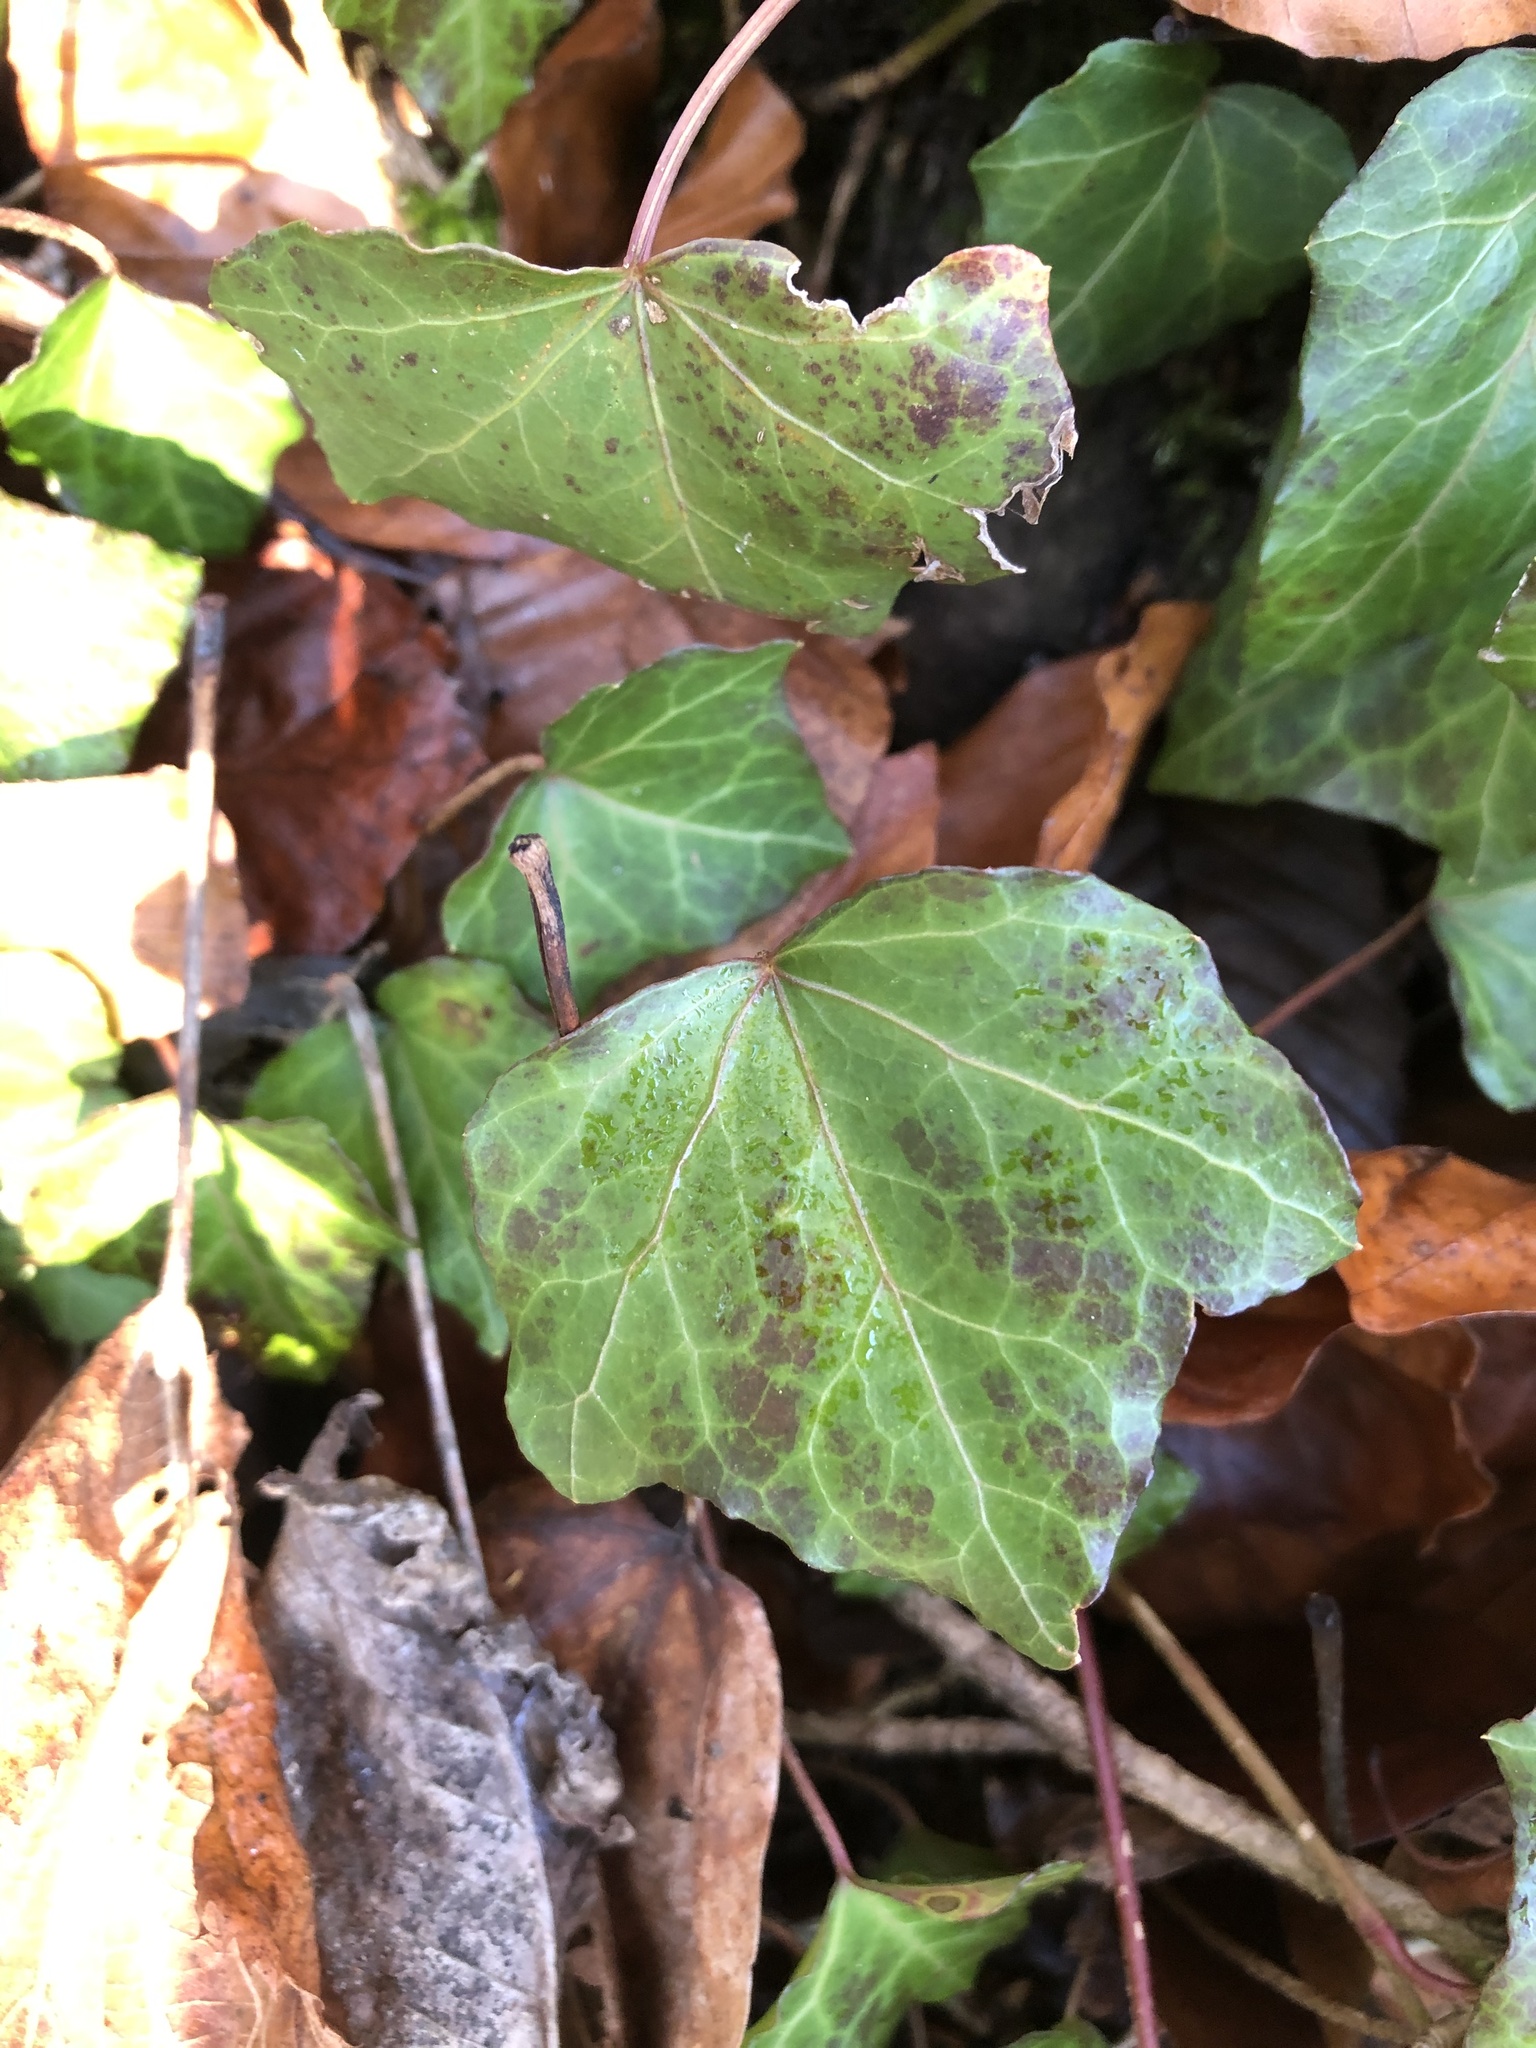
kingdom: Plantae
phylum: Tracheophyta
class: Magnoliopsida
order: Apiales
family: Araliaceae
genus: Hedera
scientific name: Hedera helix
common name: Ivy
